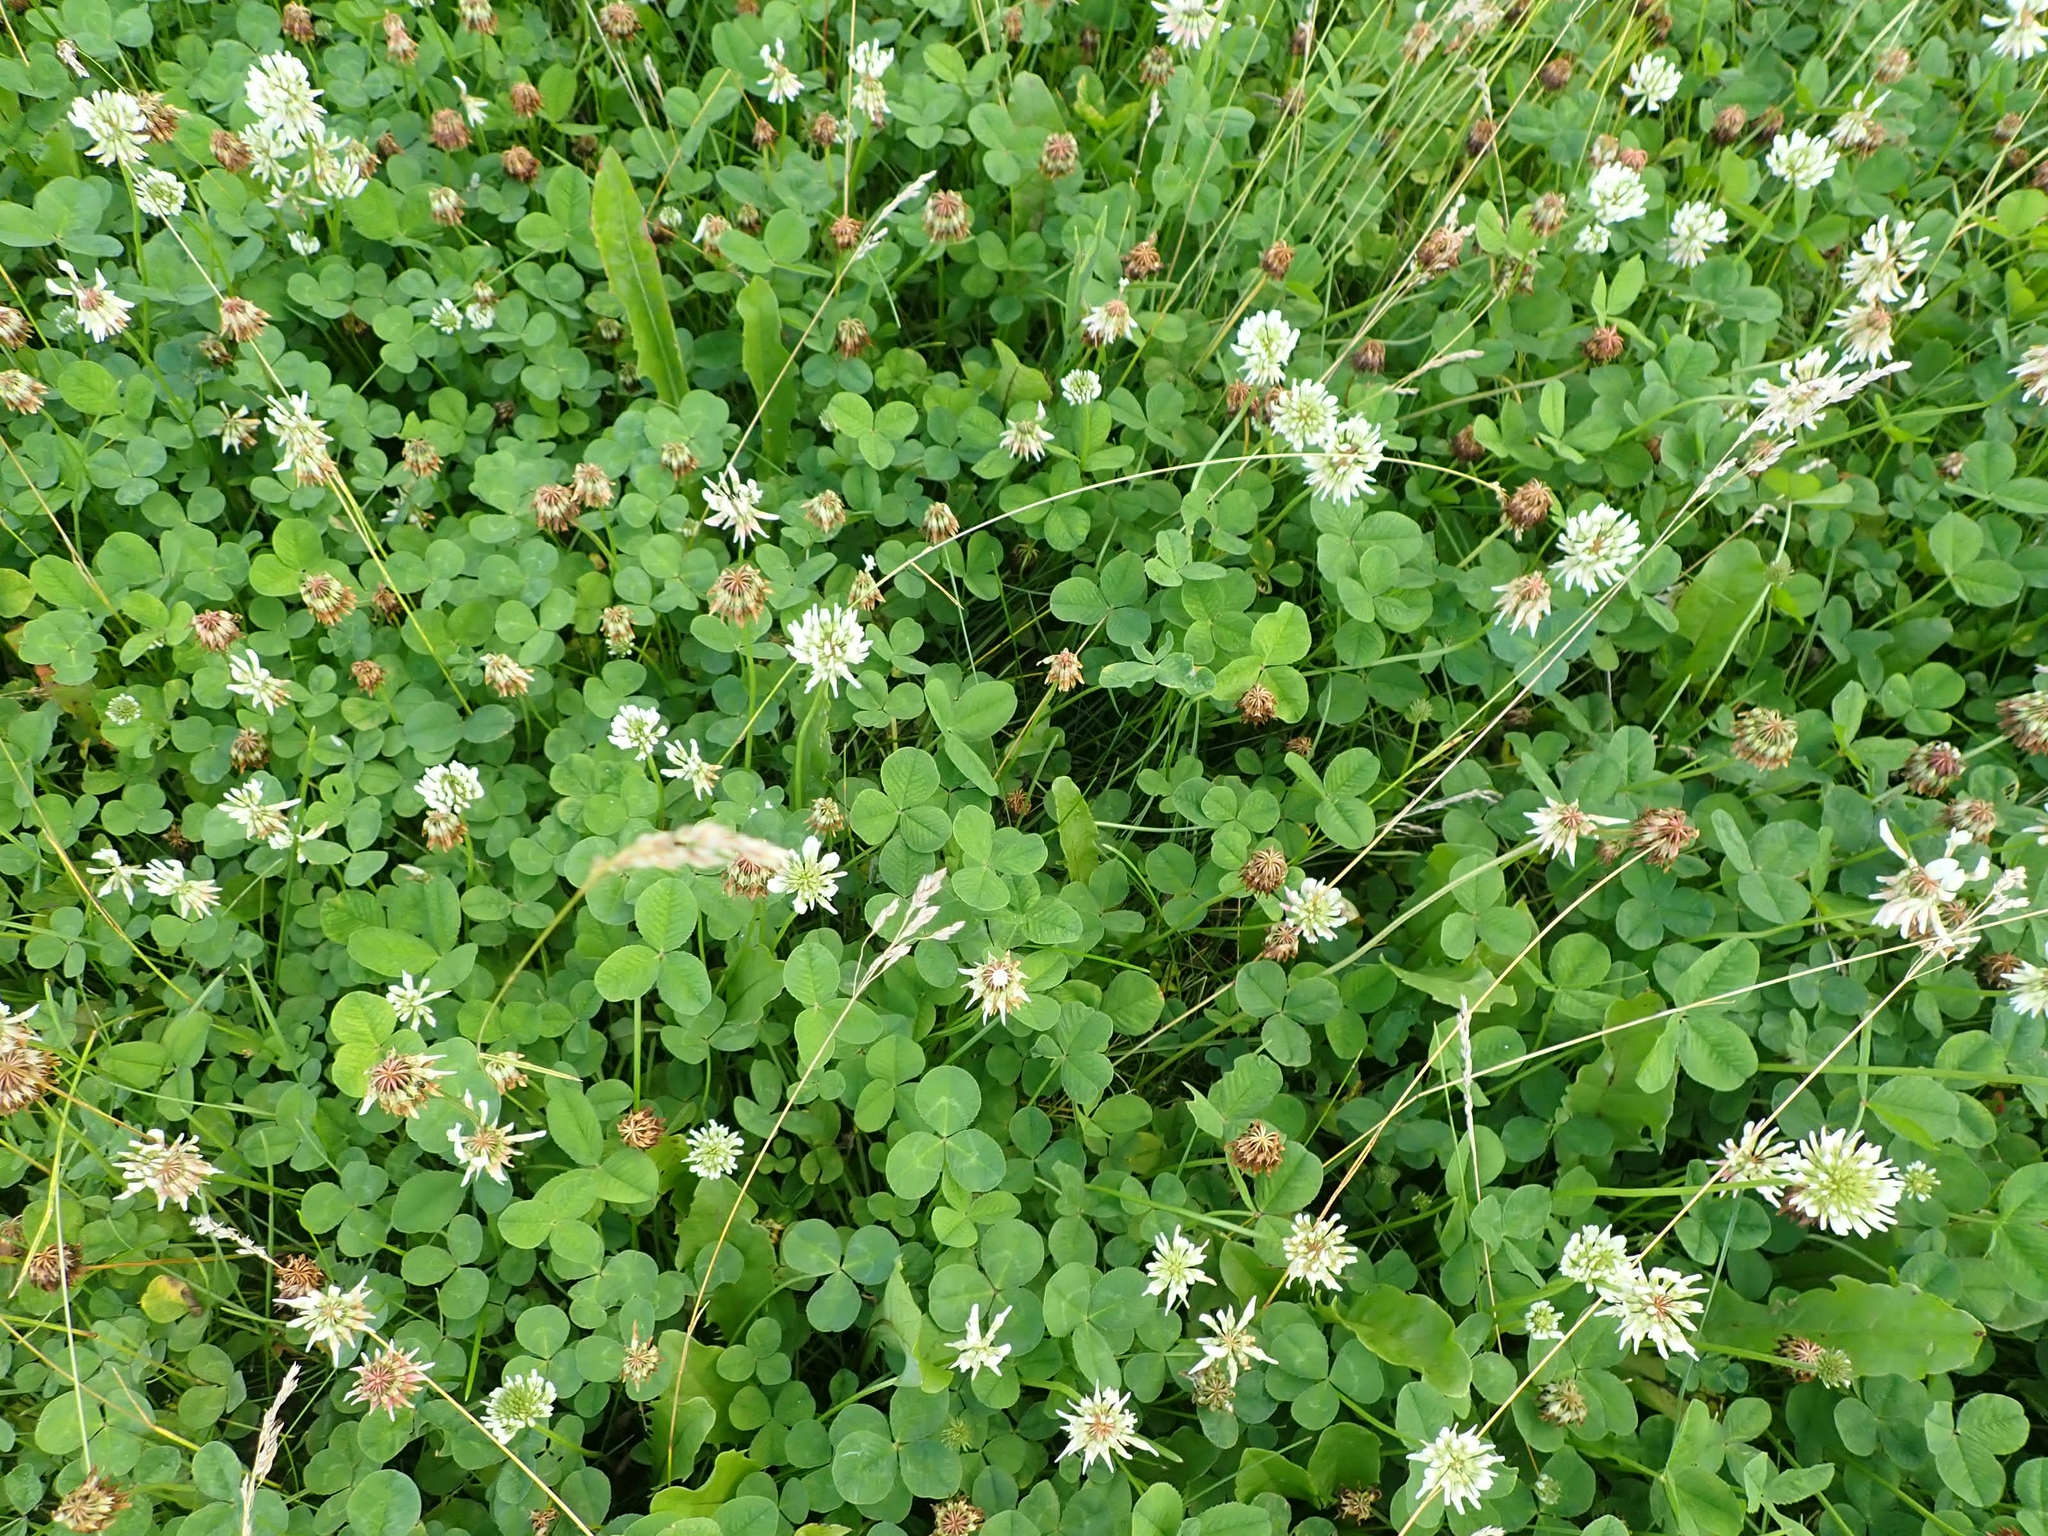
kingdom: Plantae
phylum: Tracheophyta
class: Magnoliopsida
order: Fabales
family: Fabaceae
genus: Trifolium
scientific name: Trifolium repens
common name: White clover
